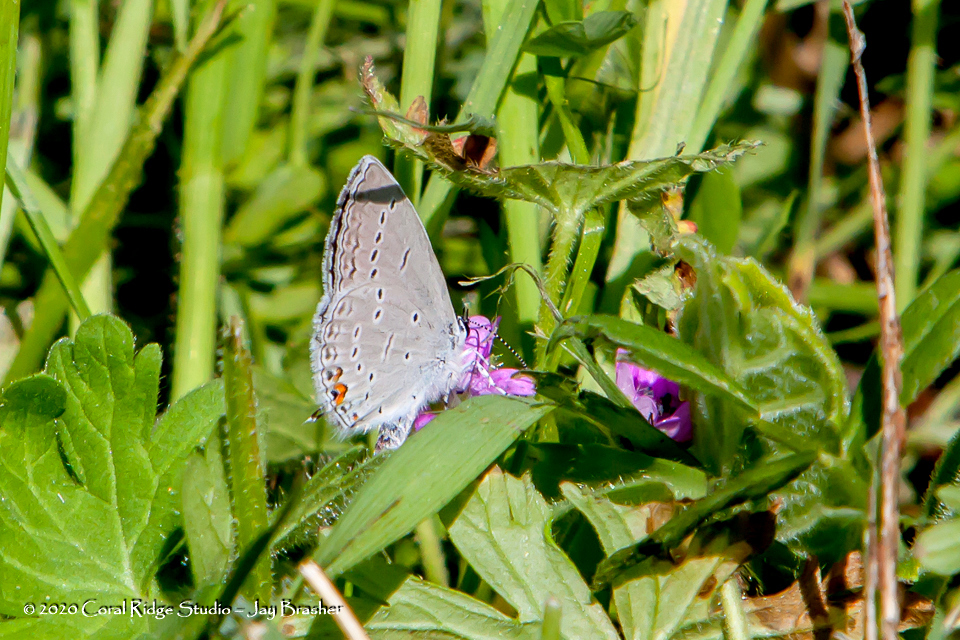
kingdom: Animalia
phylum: Arthropoda
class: Insecta
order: Lepidoptera
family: Lycaenidae
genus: Elkalyce
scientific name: Elkalyce comyntas
